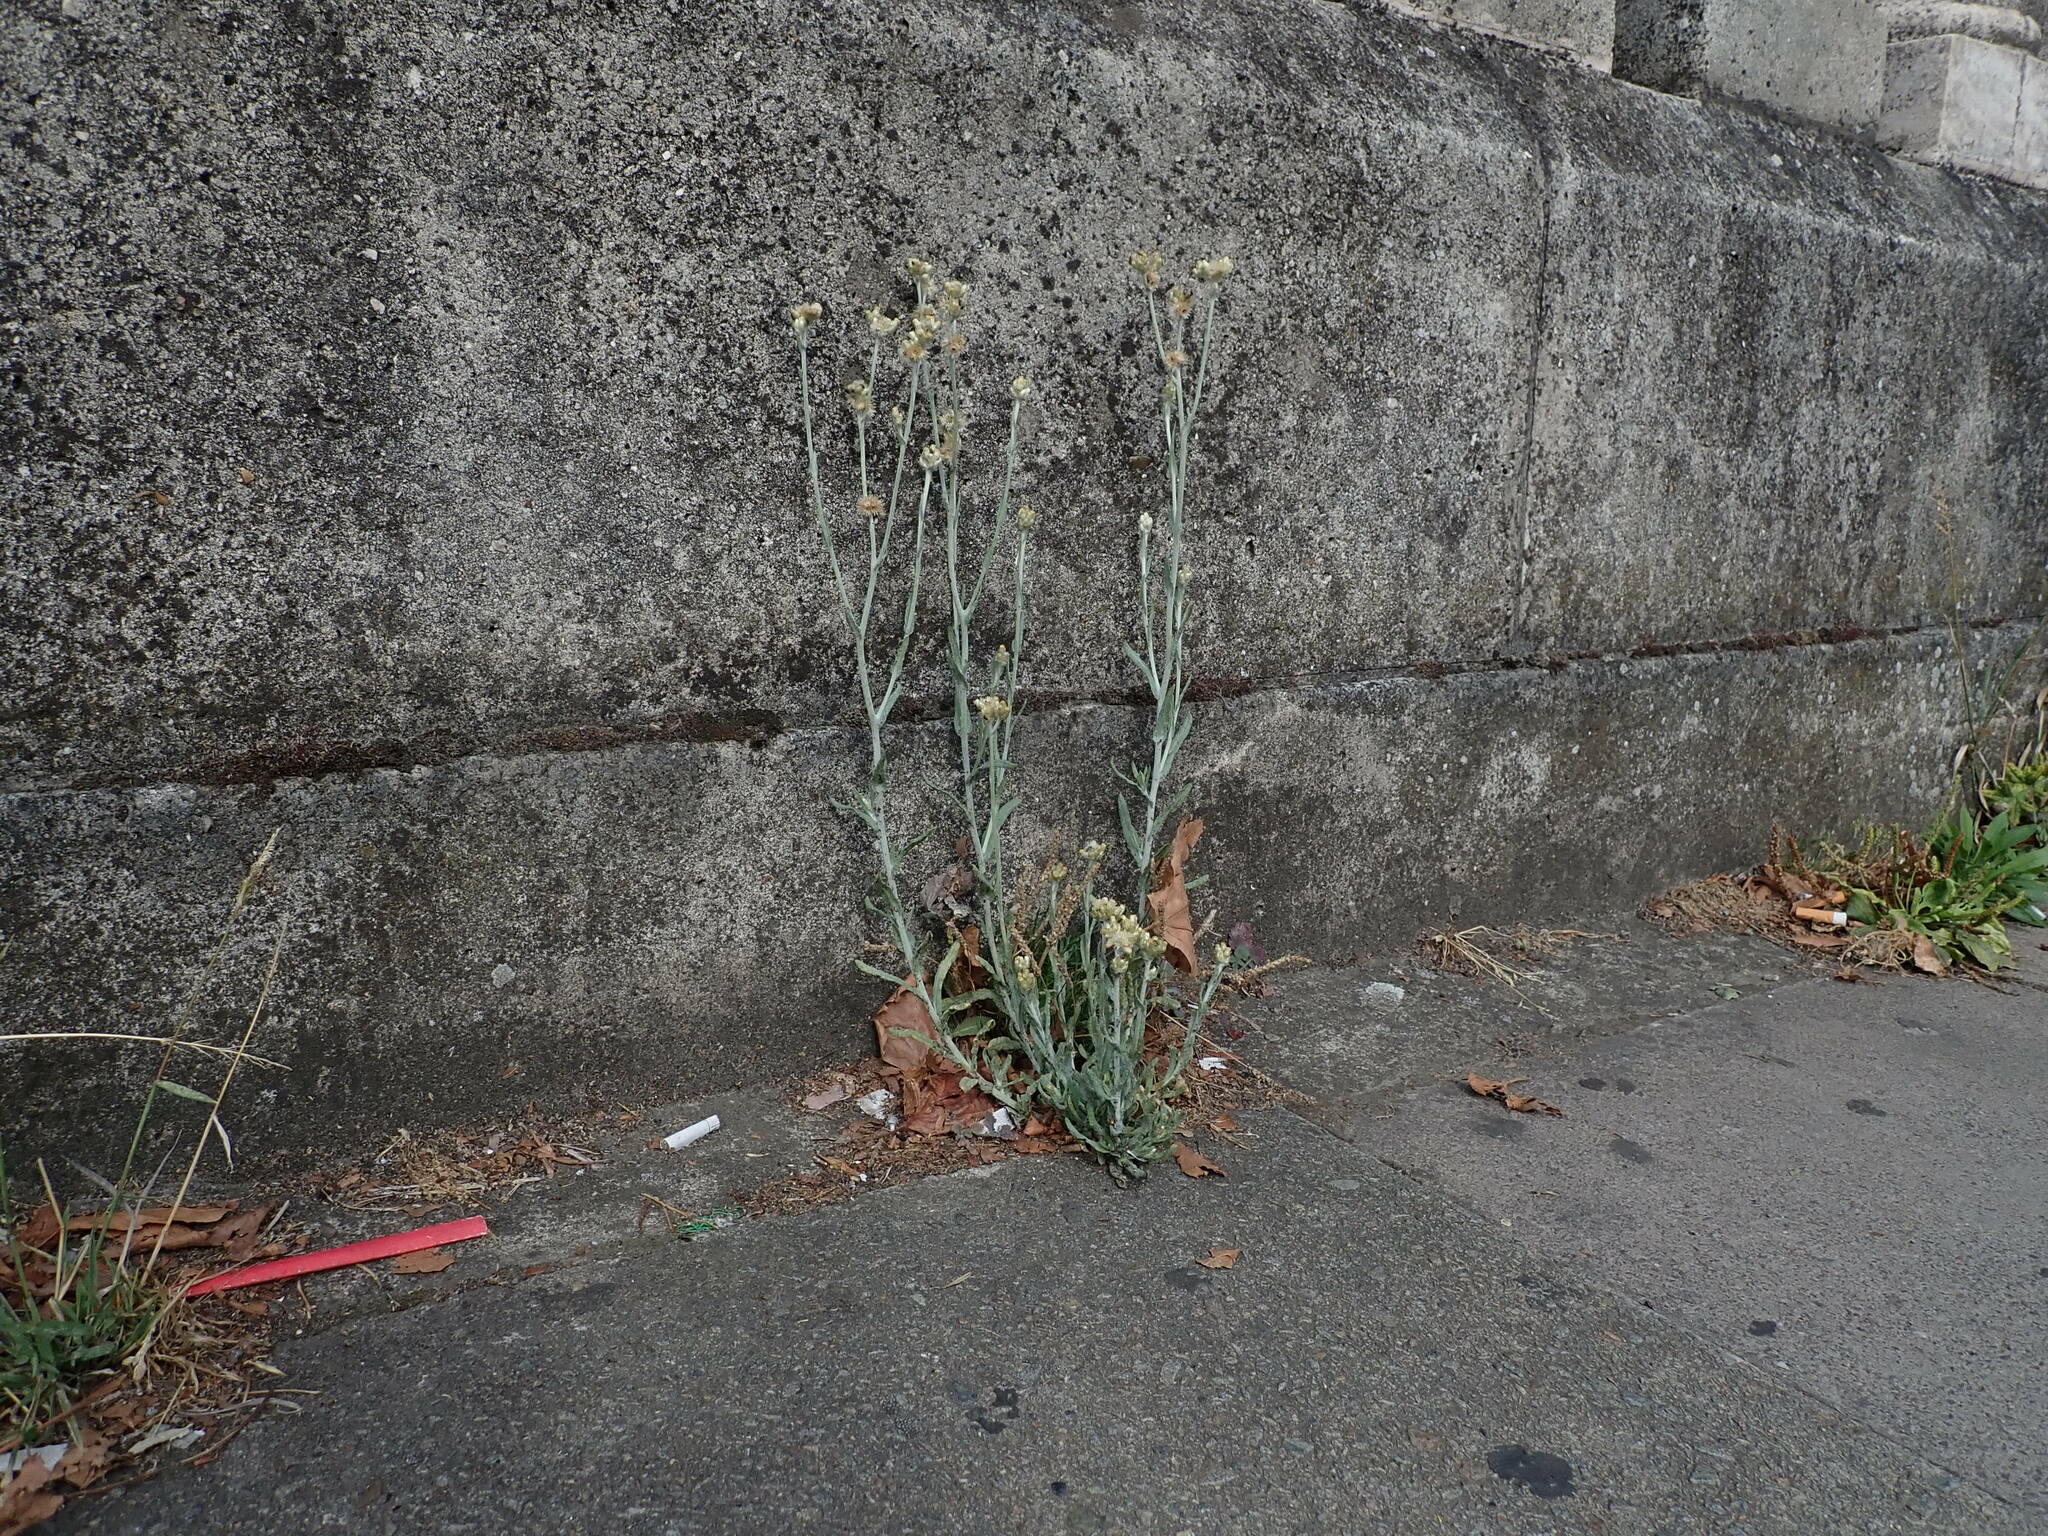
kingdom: Plantae
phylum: Tracheophyta
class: Magnoliopsida
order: Asterales
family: Asteraceae
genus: Helichrysum
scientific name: Helichrysum luteoalbum
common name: Daisy
